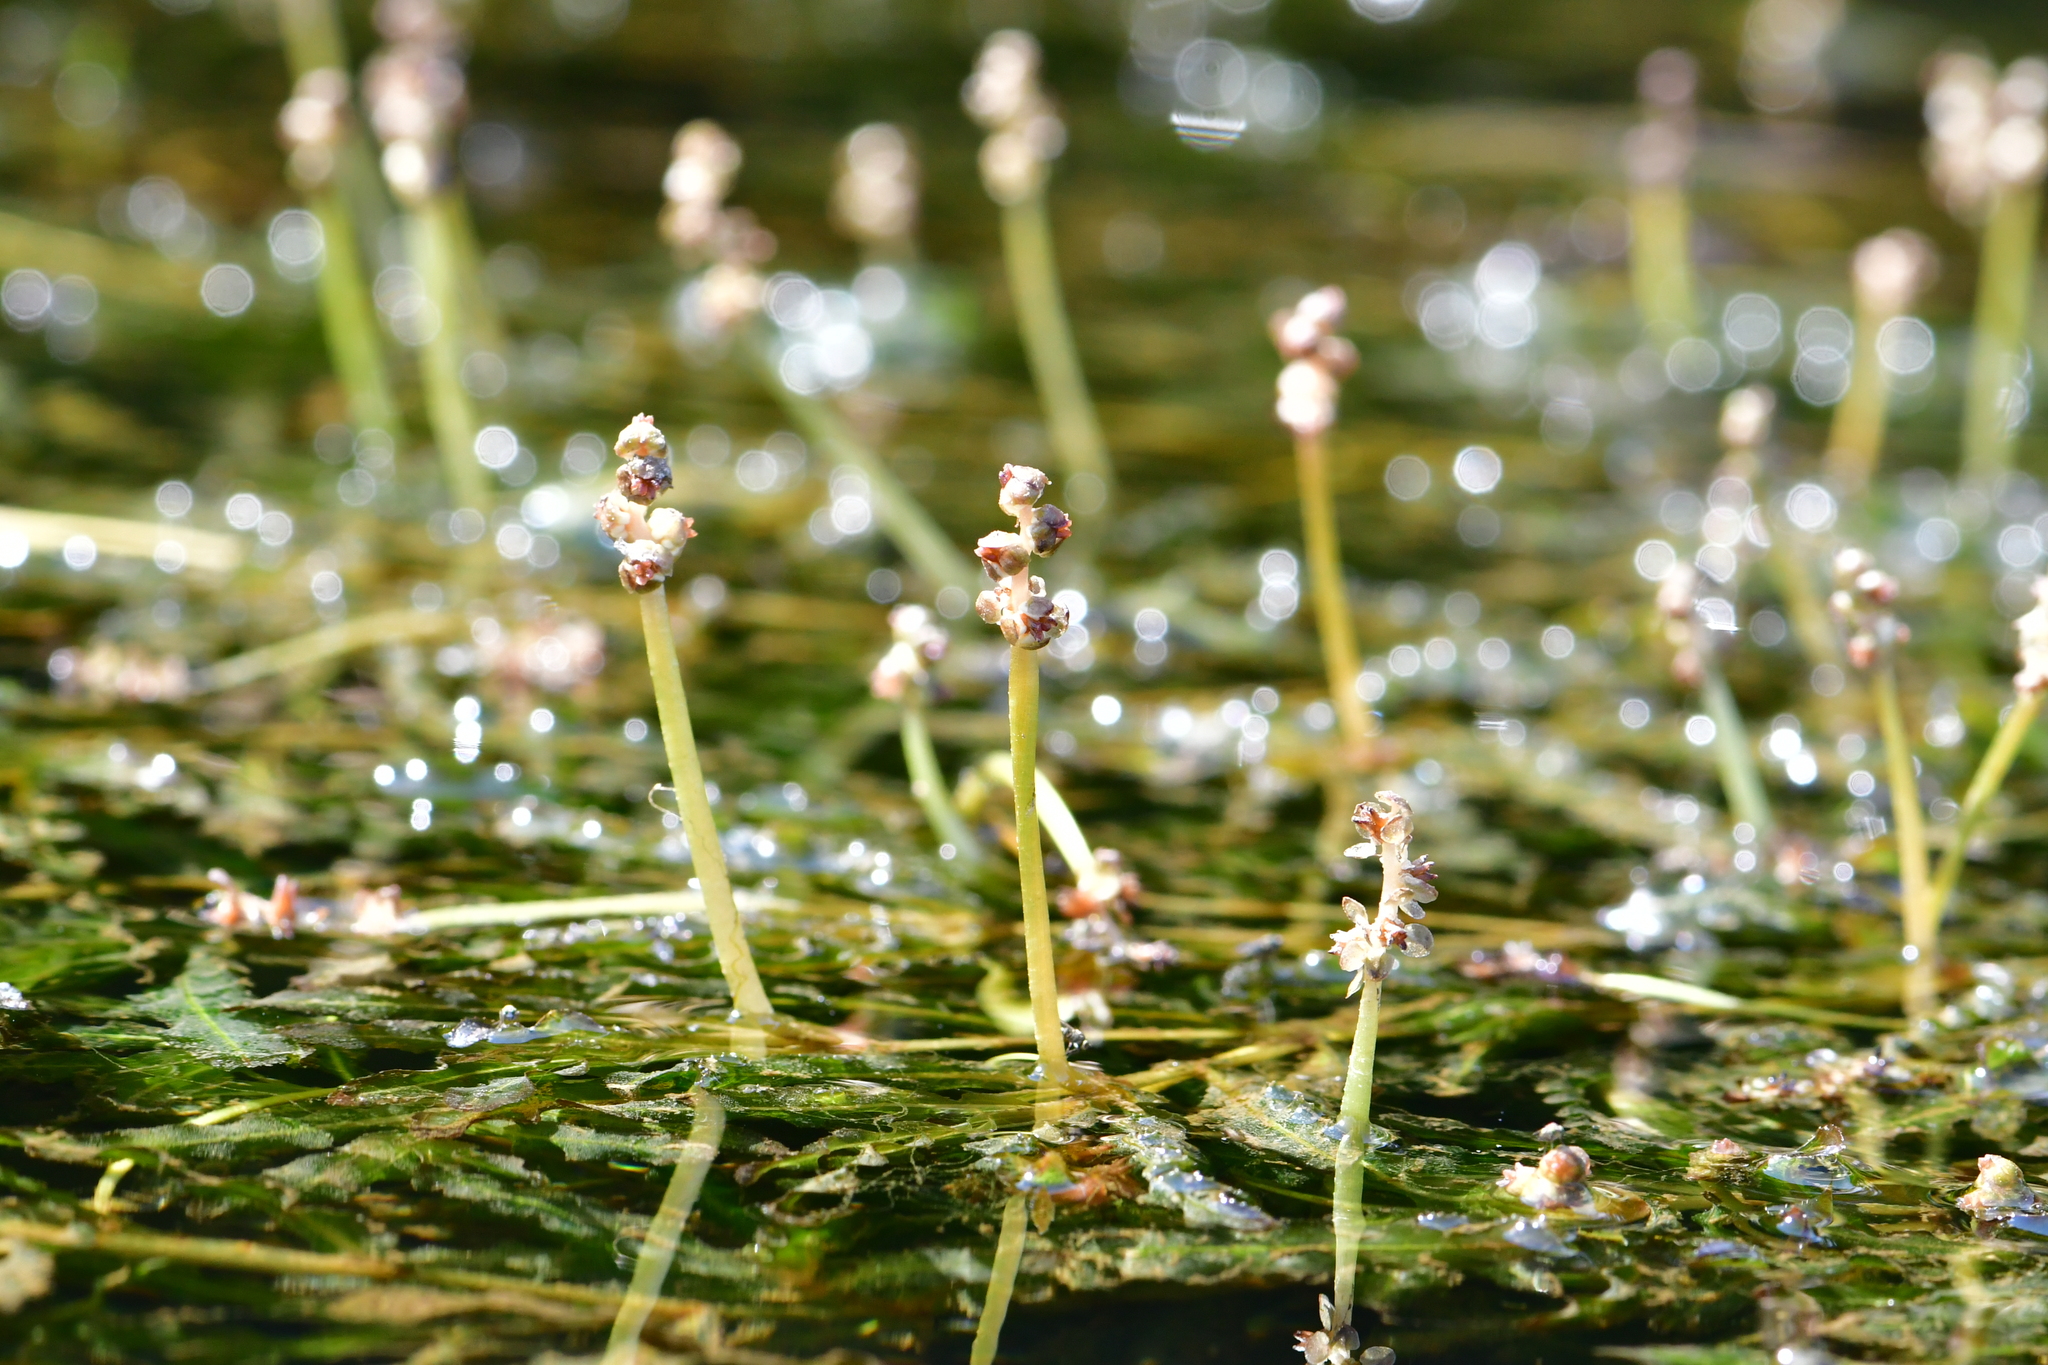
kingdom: Plantae
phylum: Tracheophyta
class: Liliopsida
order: Alismatales
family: Potamogetonaceae
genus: Potamogeton
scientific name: Potamogeton crispus
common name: Curled pondweed
